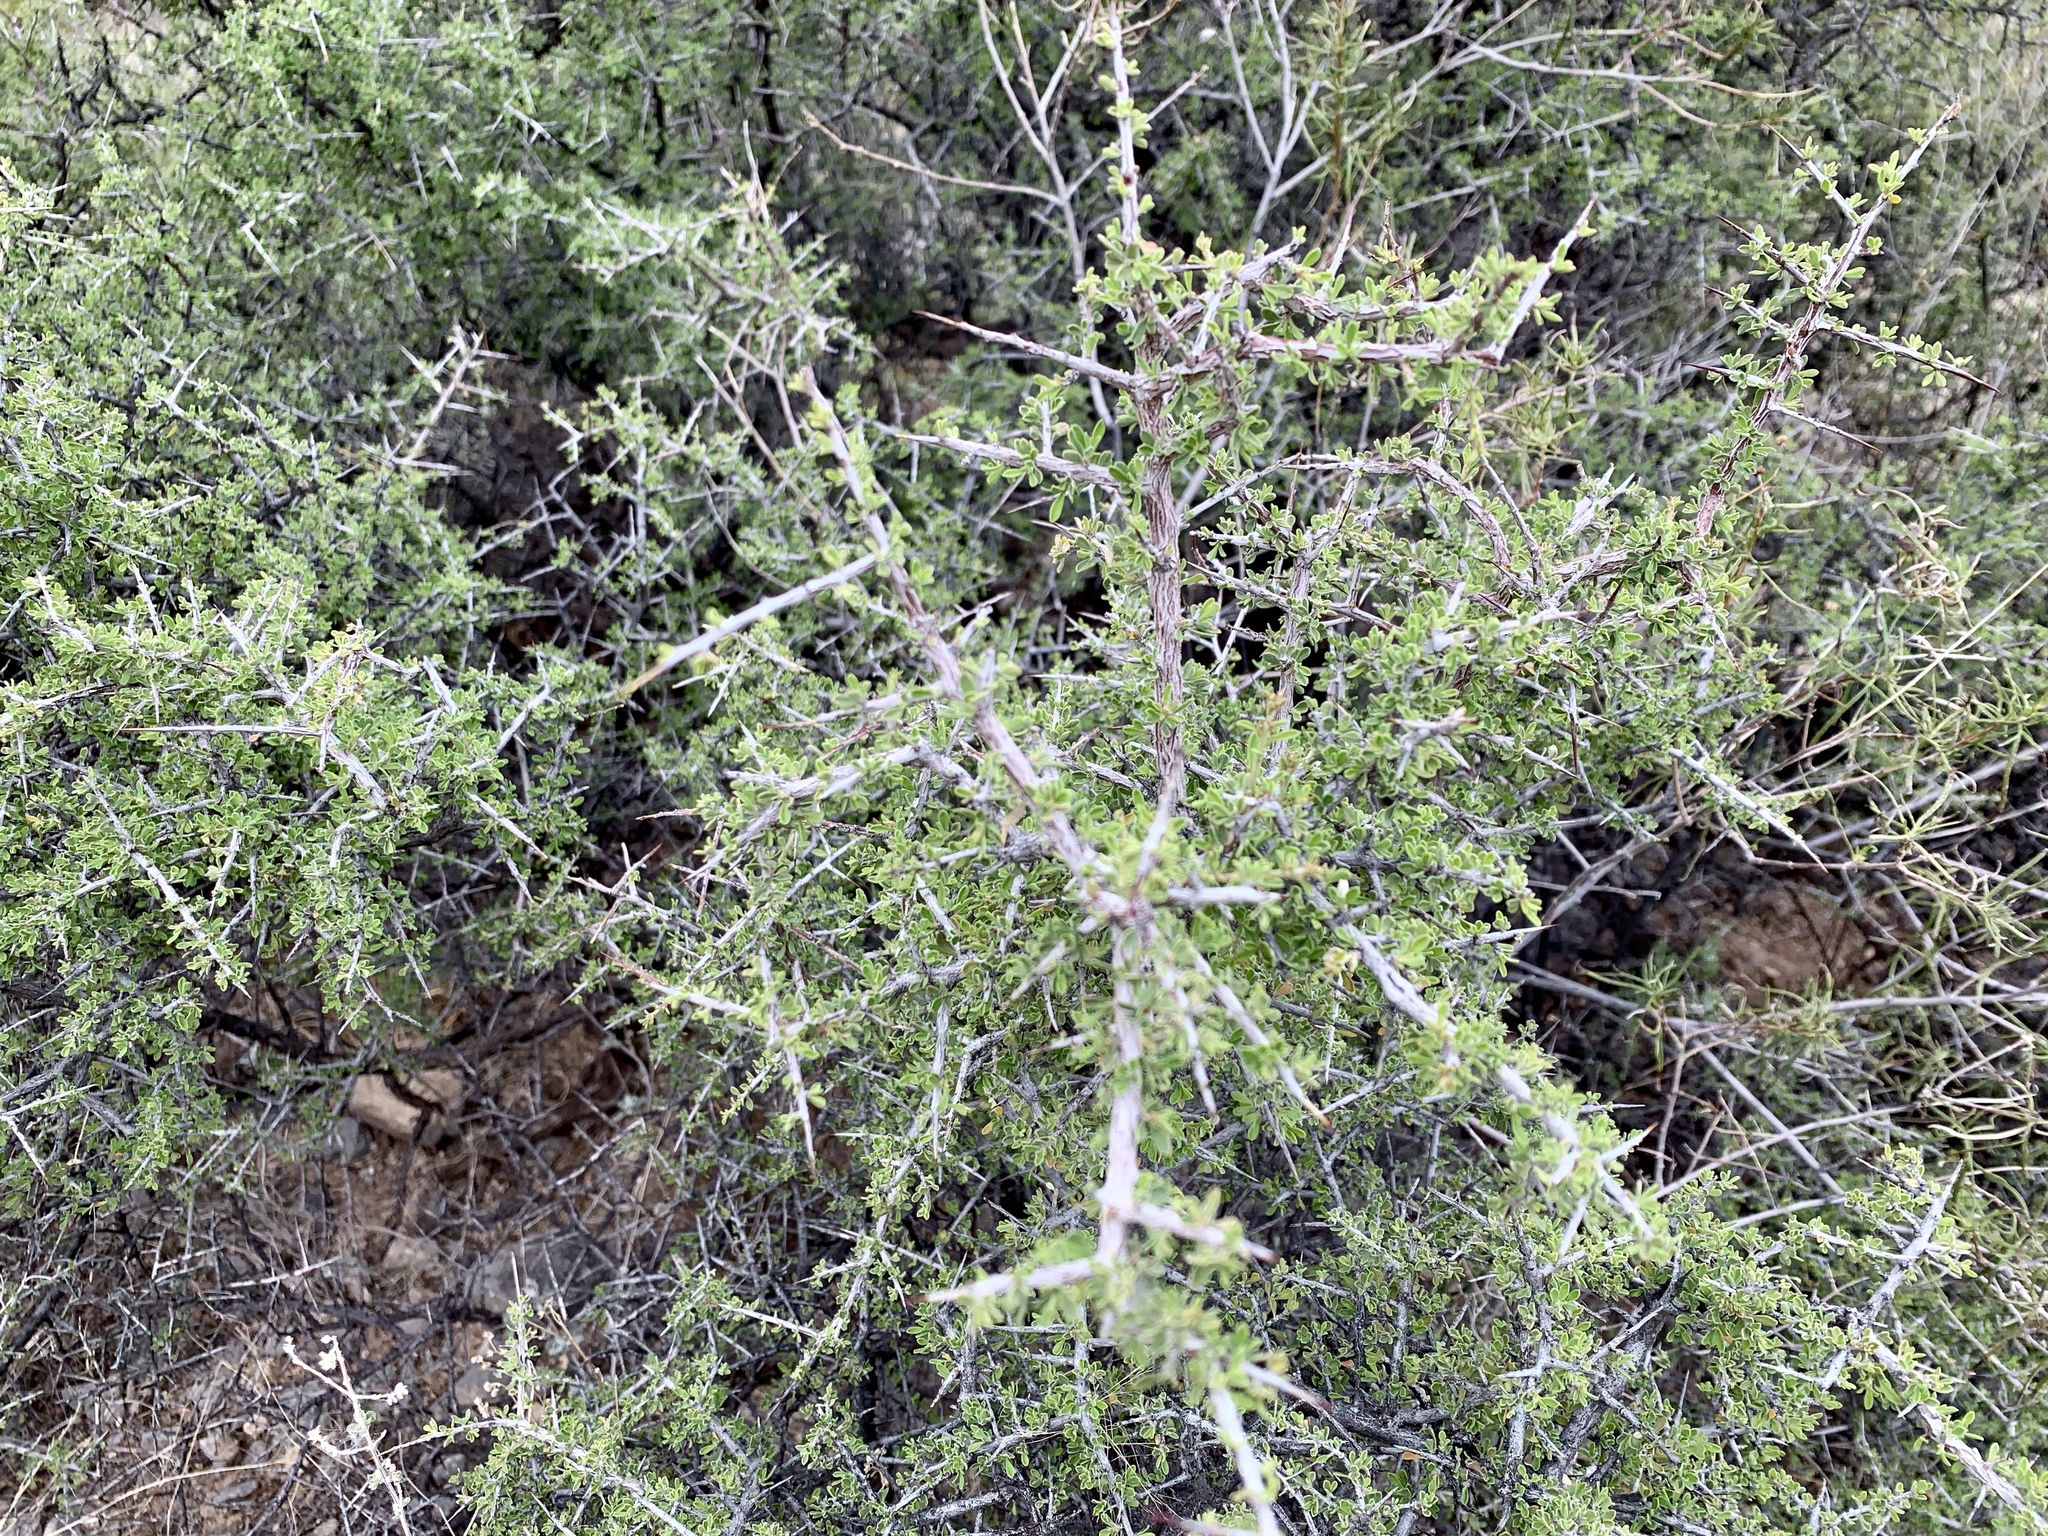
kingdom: Plantae
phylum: Tracheophyta
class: Magnoliopsida
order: Rosales
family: Rhamnaceae
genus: Condalia
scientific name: Condalia warnockii
